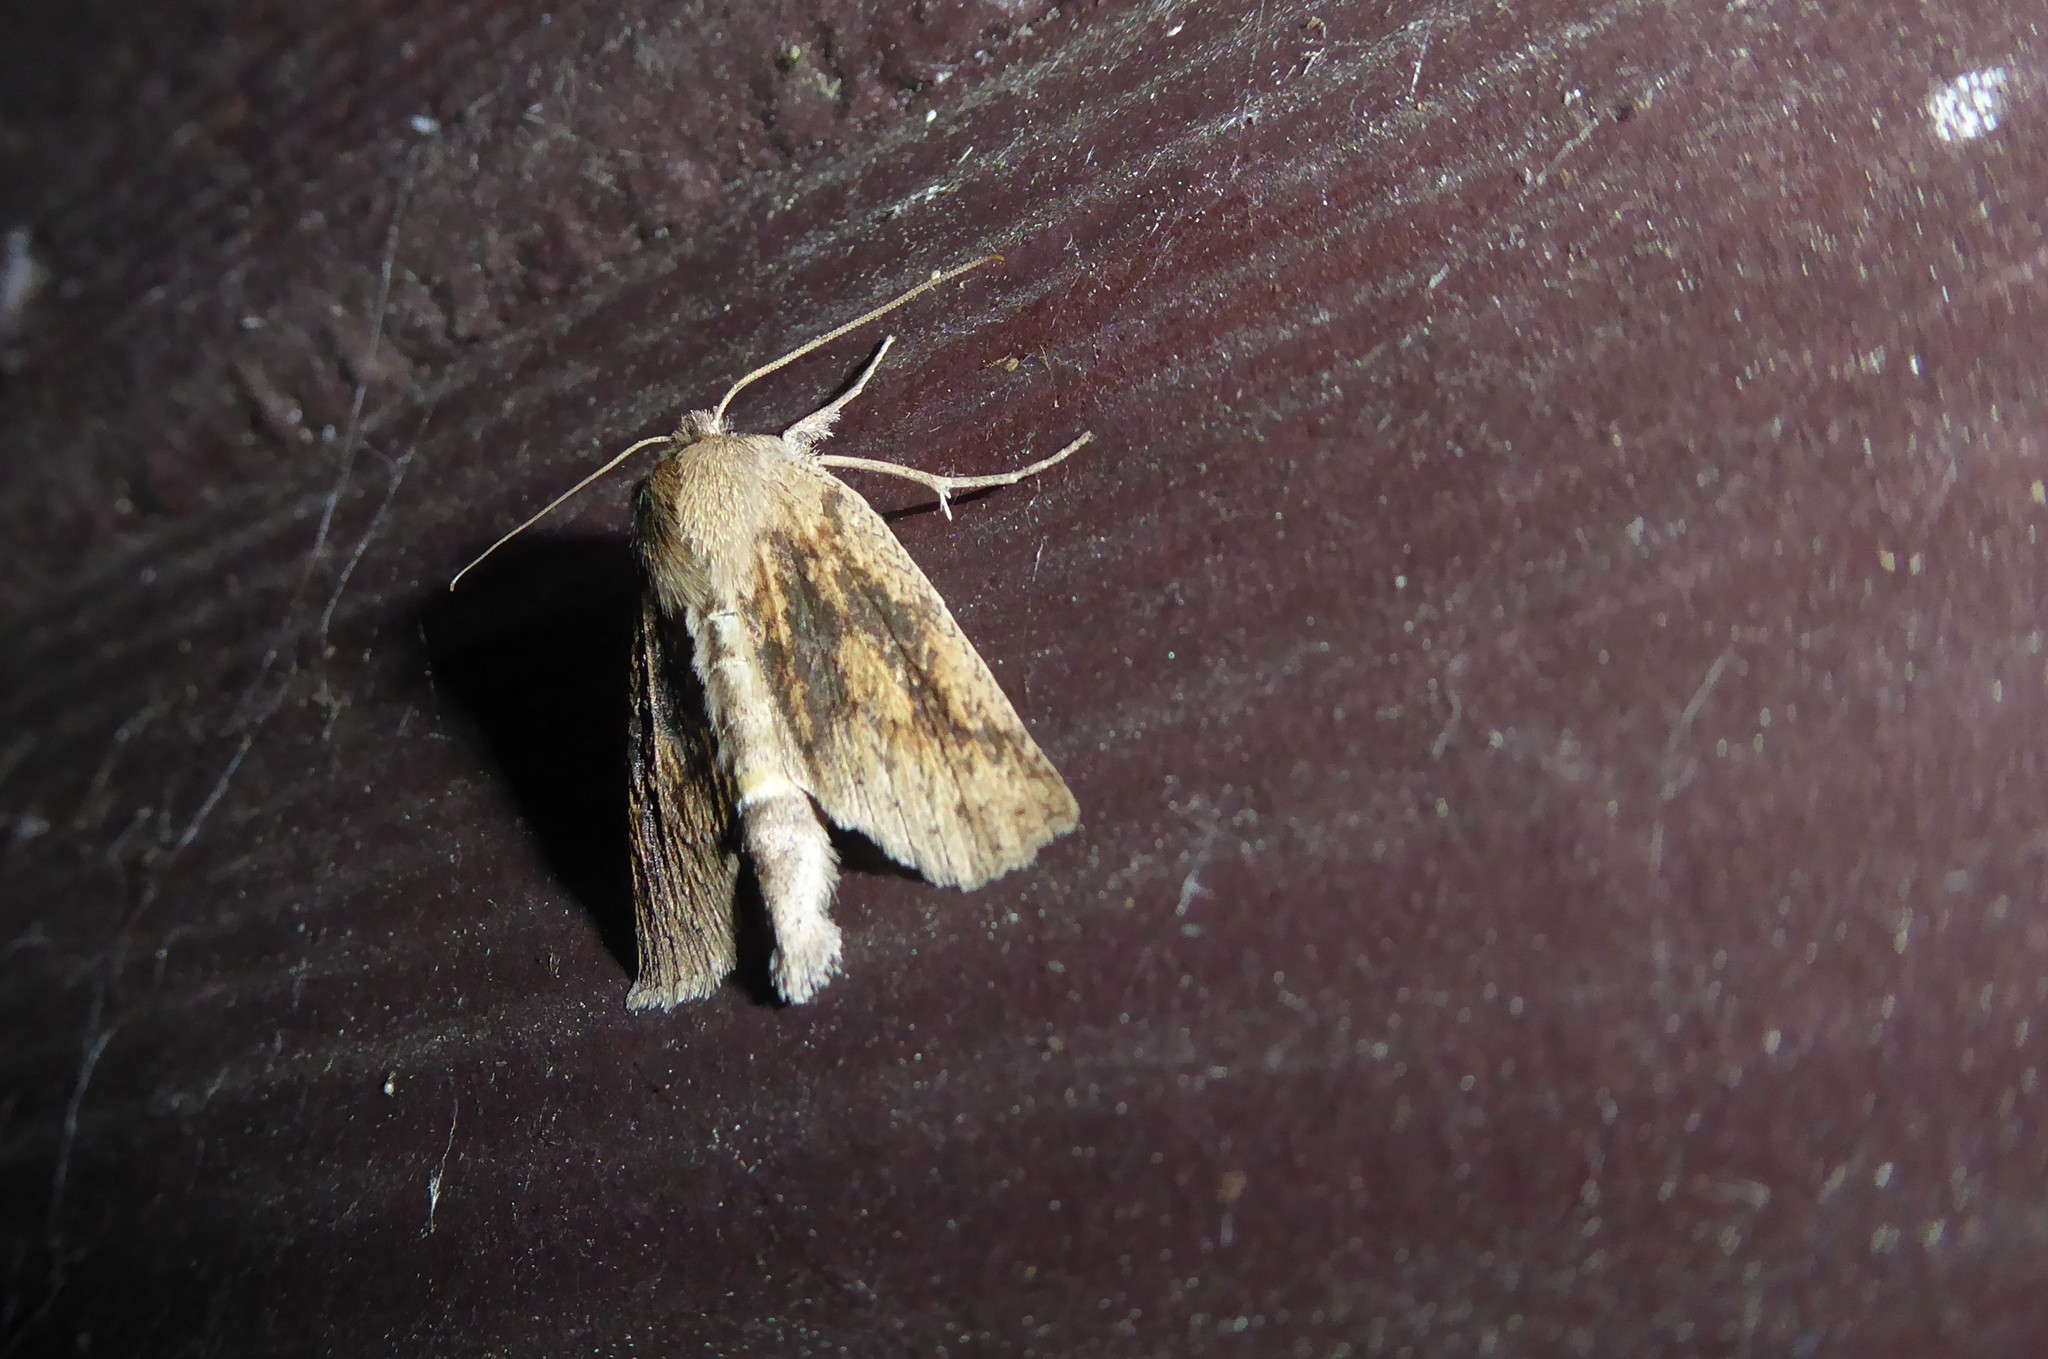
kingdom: Animalia
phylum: Arthropoda
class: Insecta
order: Lepidoptera
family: Geometridae
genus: Declana
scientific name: Declana leptomera
